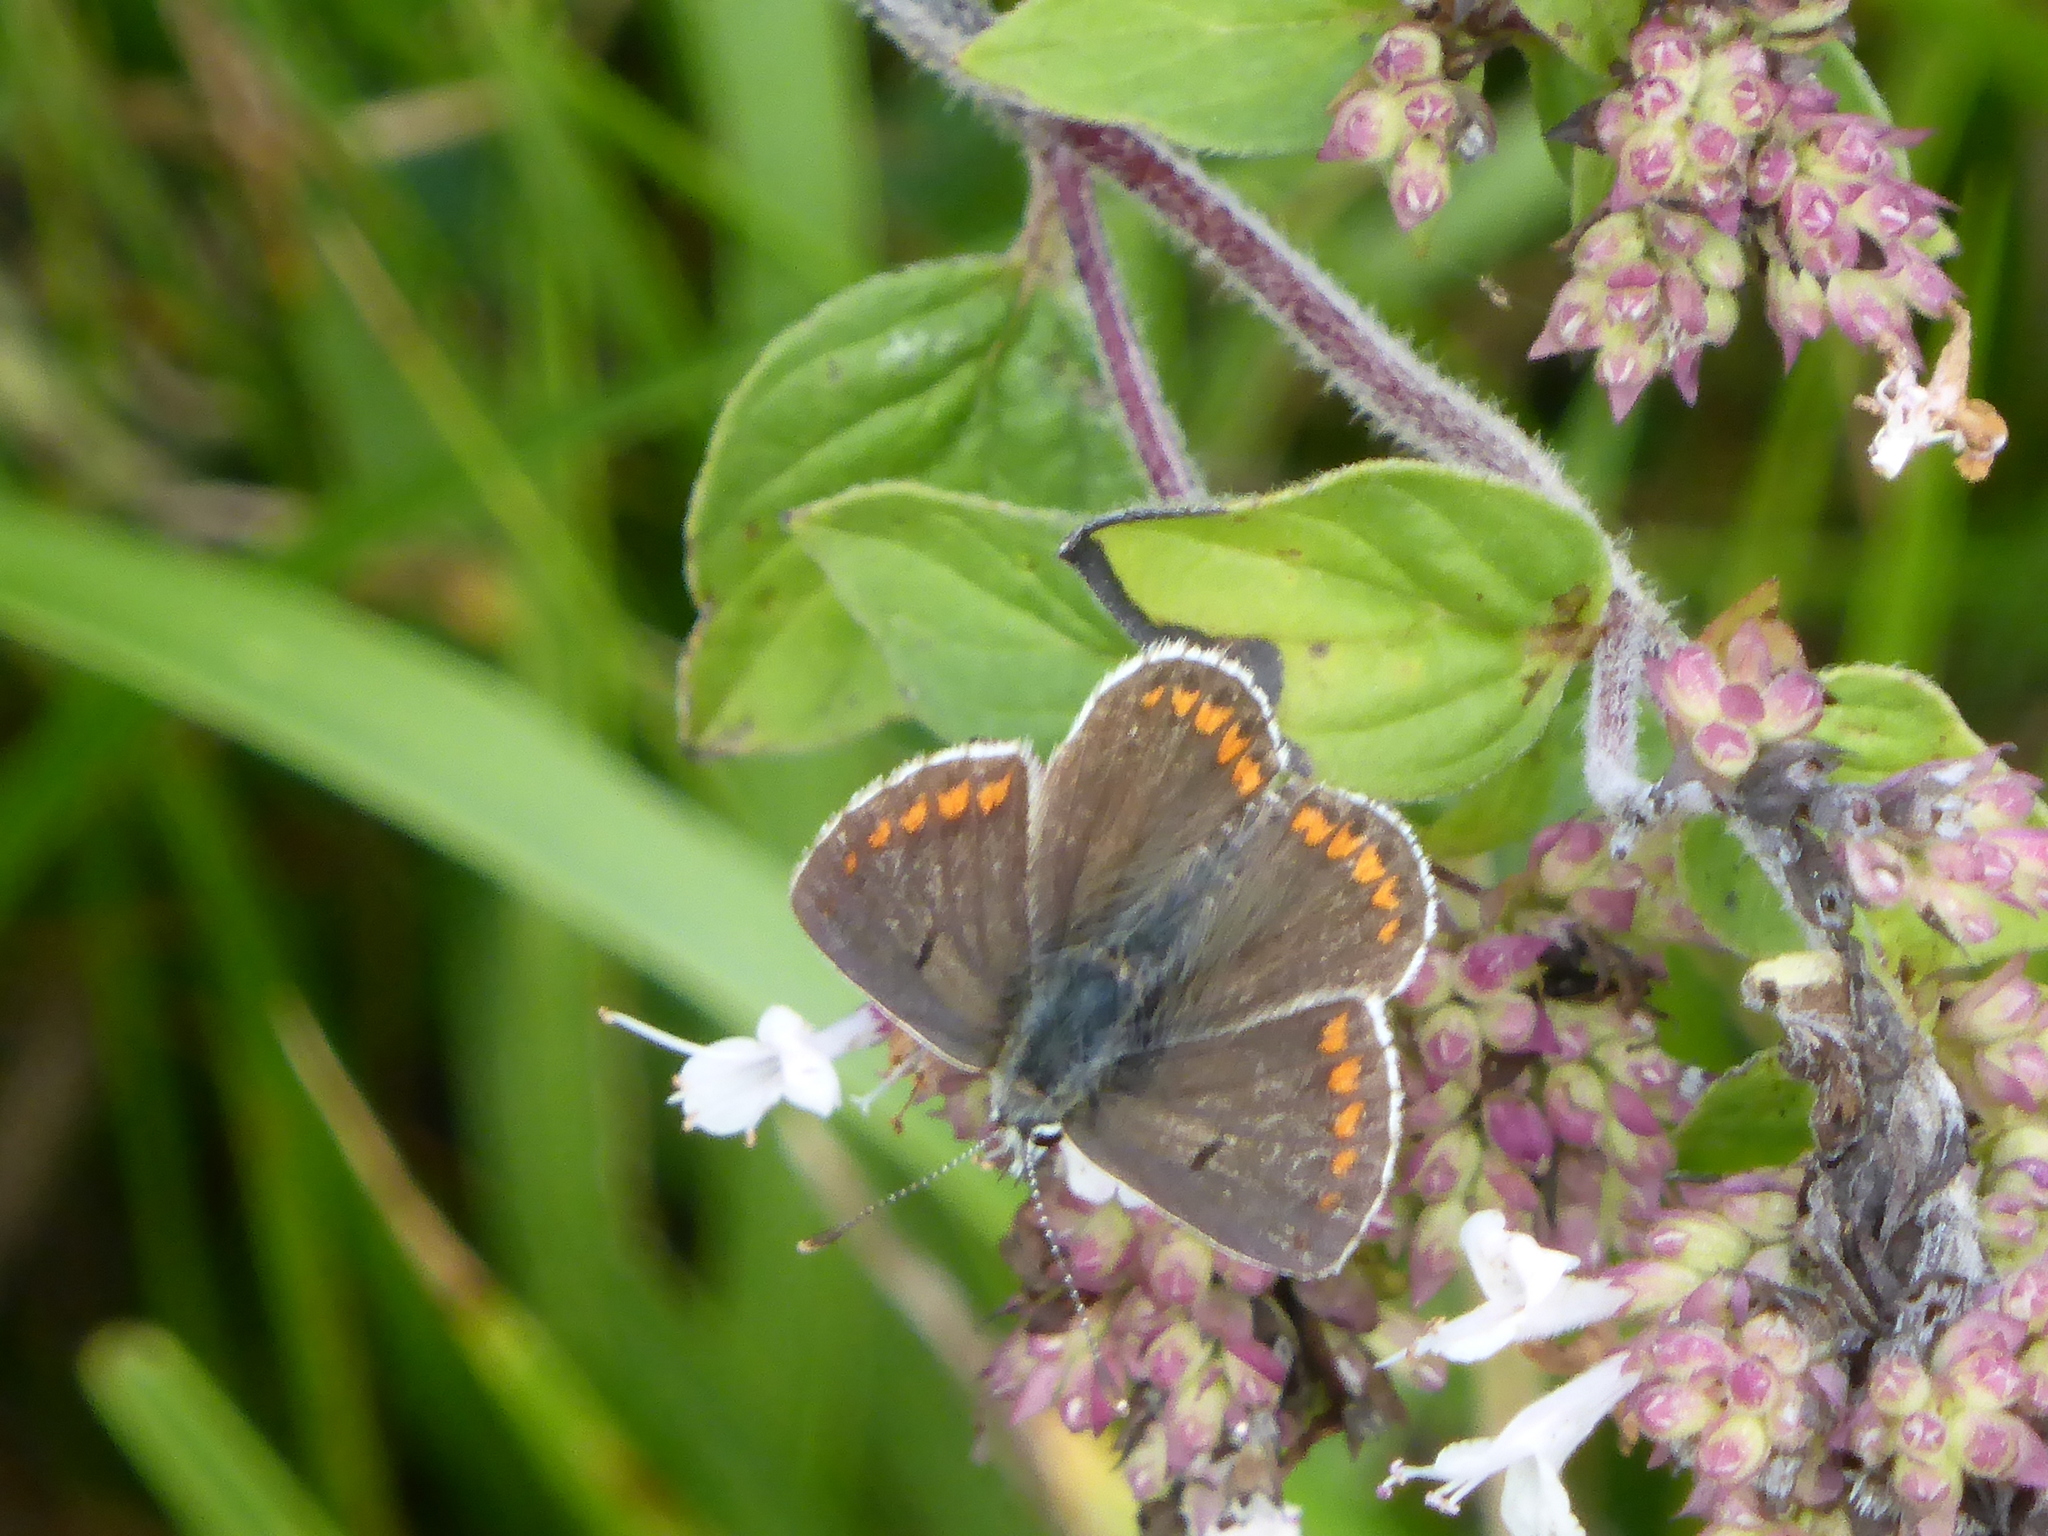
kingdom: Animalia
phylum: Arthropoda
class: Insecta
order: Lepidoptera
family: Lycaenidae
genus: Aricia
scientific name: Aricia agestis
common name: Brown argus
